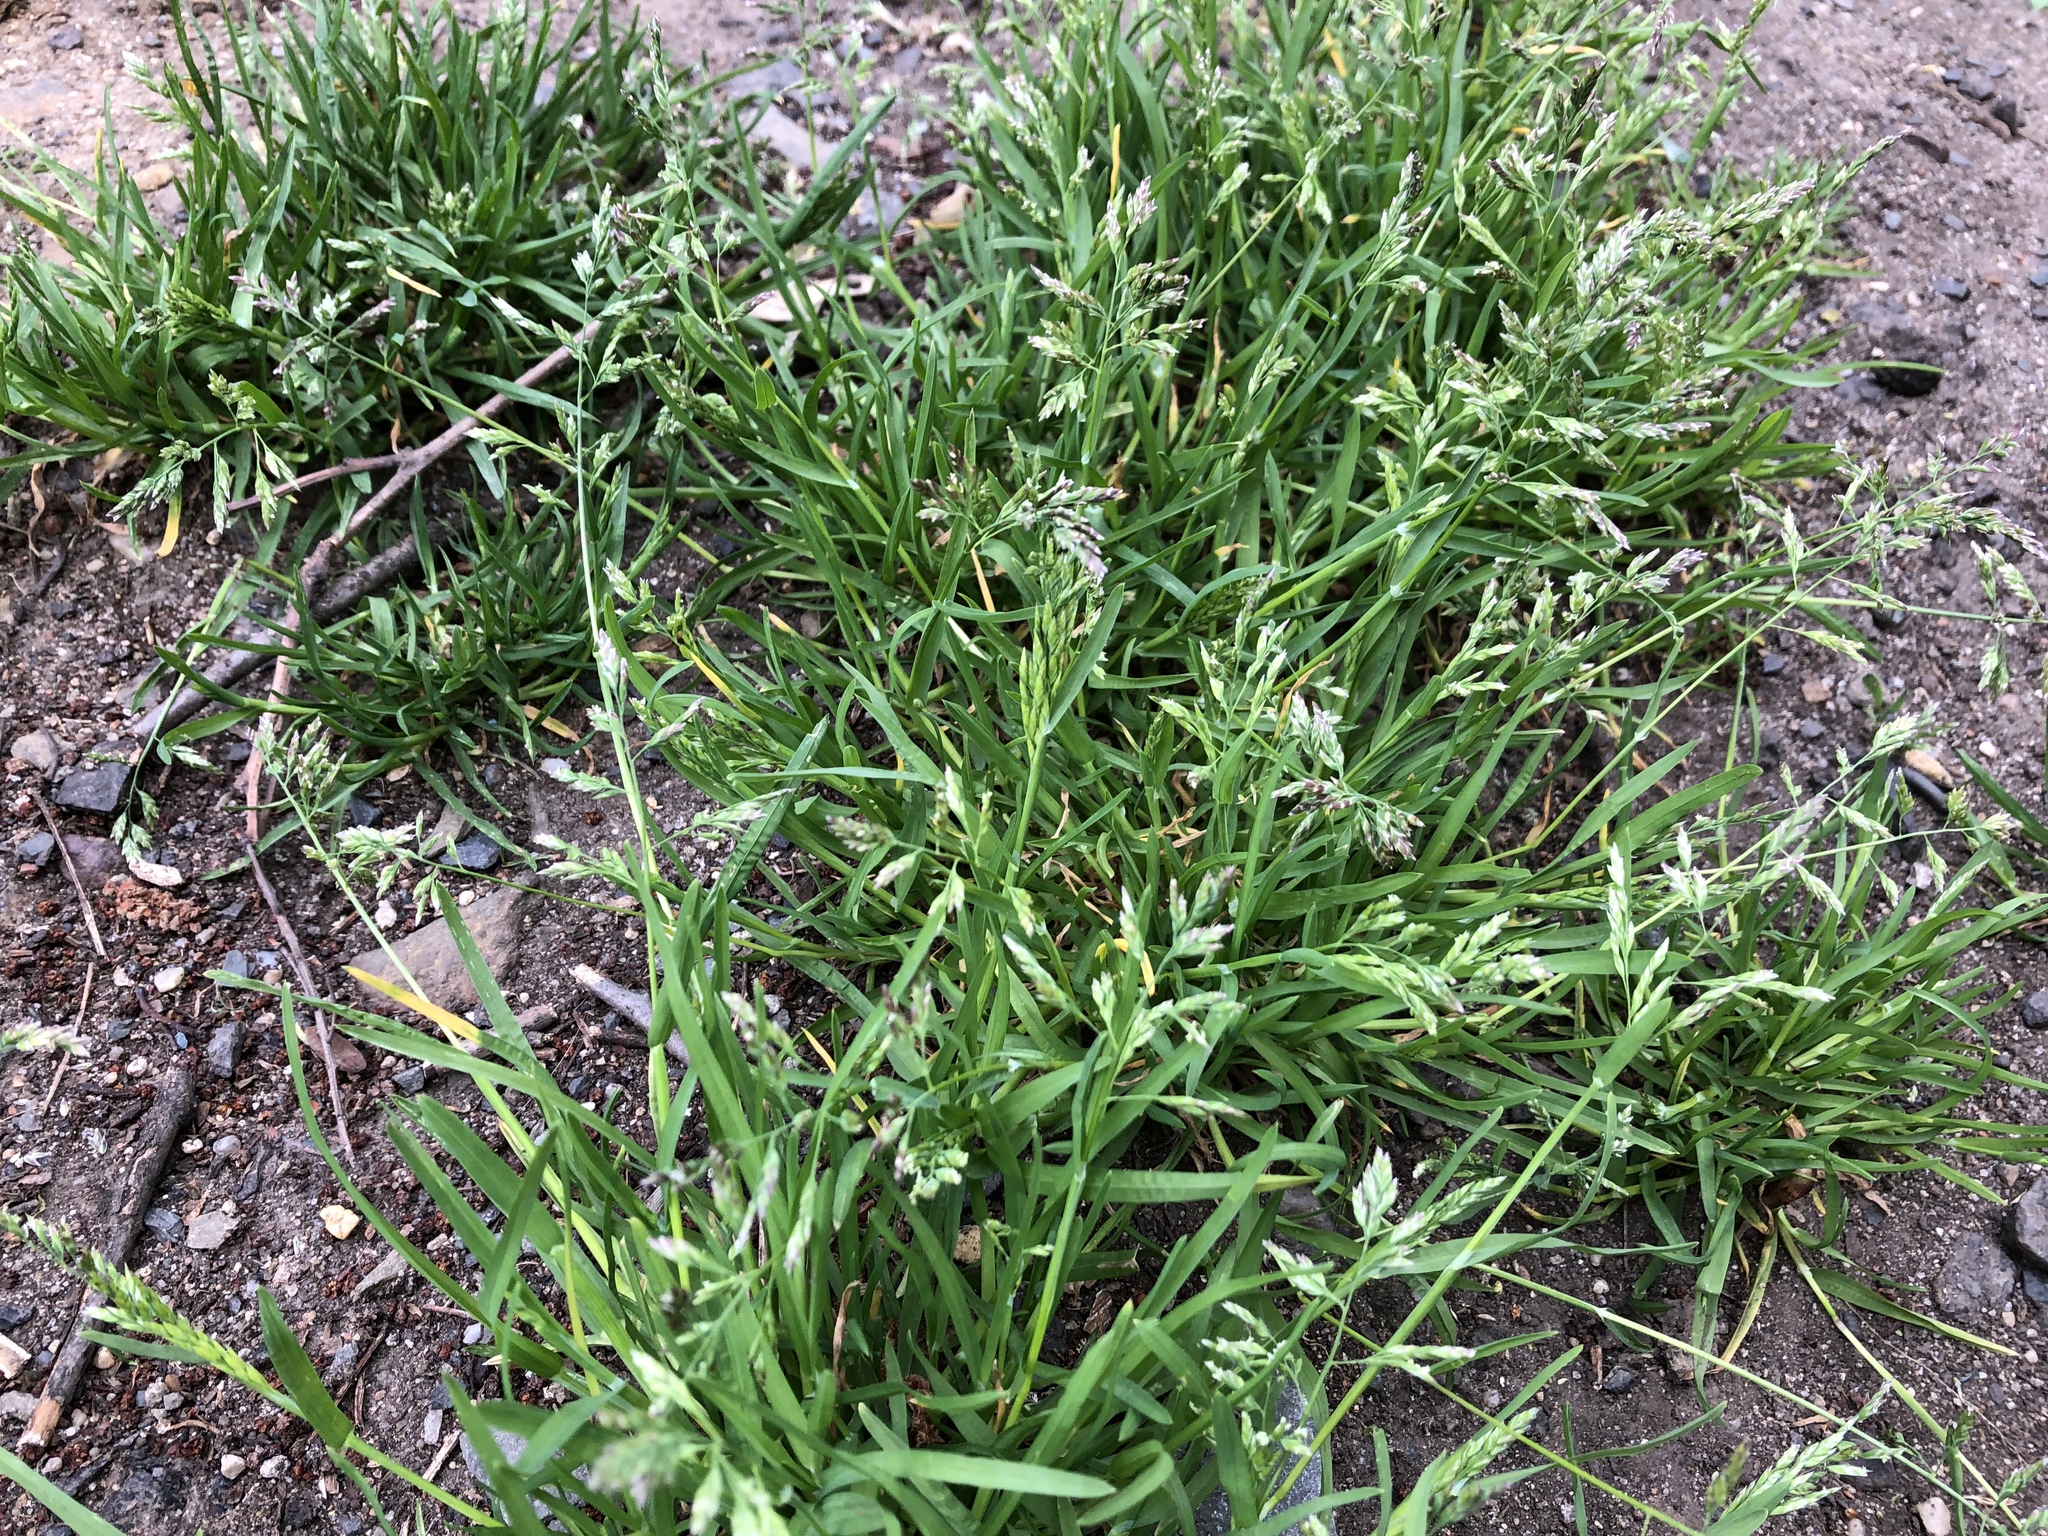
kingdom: Plantae
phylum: Tracheophyta
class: Liliopsida
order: Poales
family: Poaceae
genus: Poa
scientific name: Poa annua
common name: Annual bluegrass
